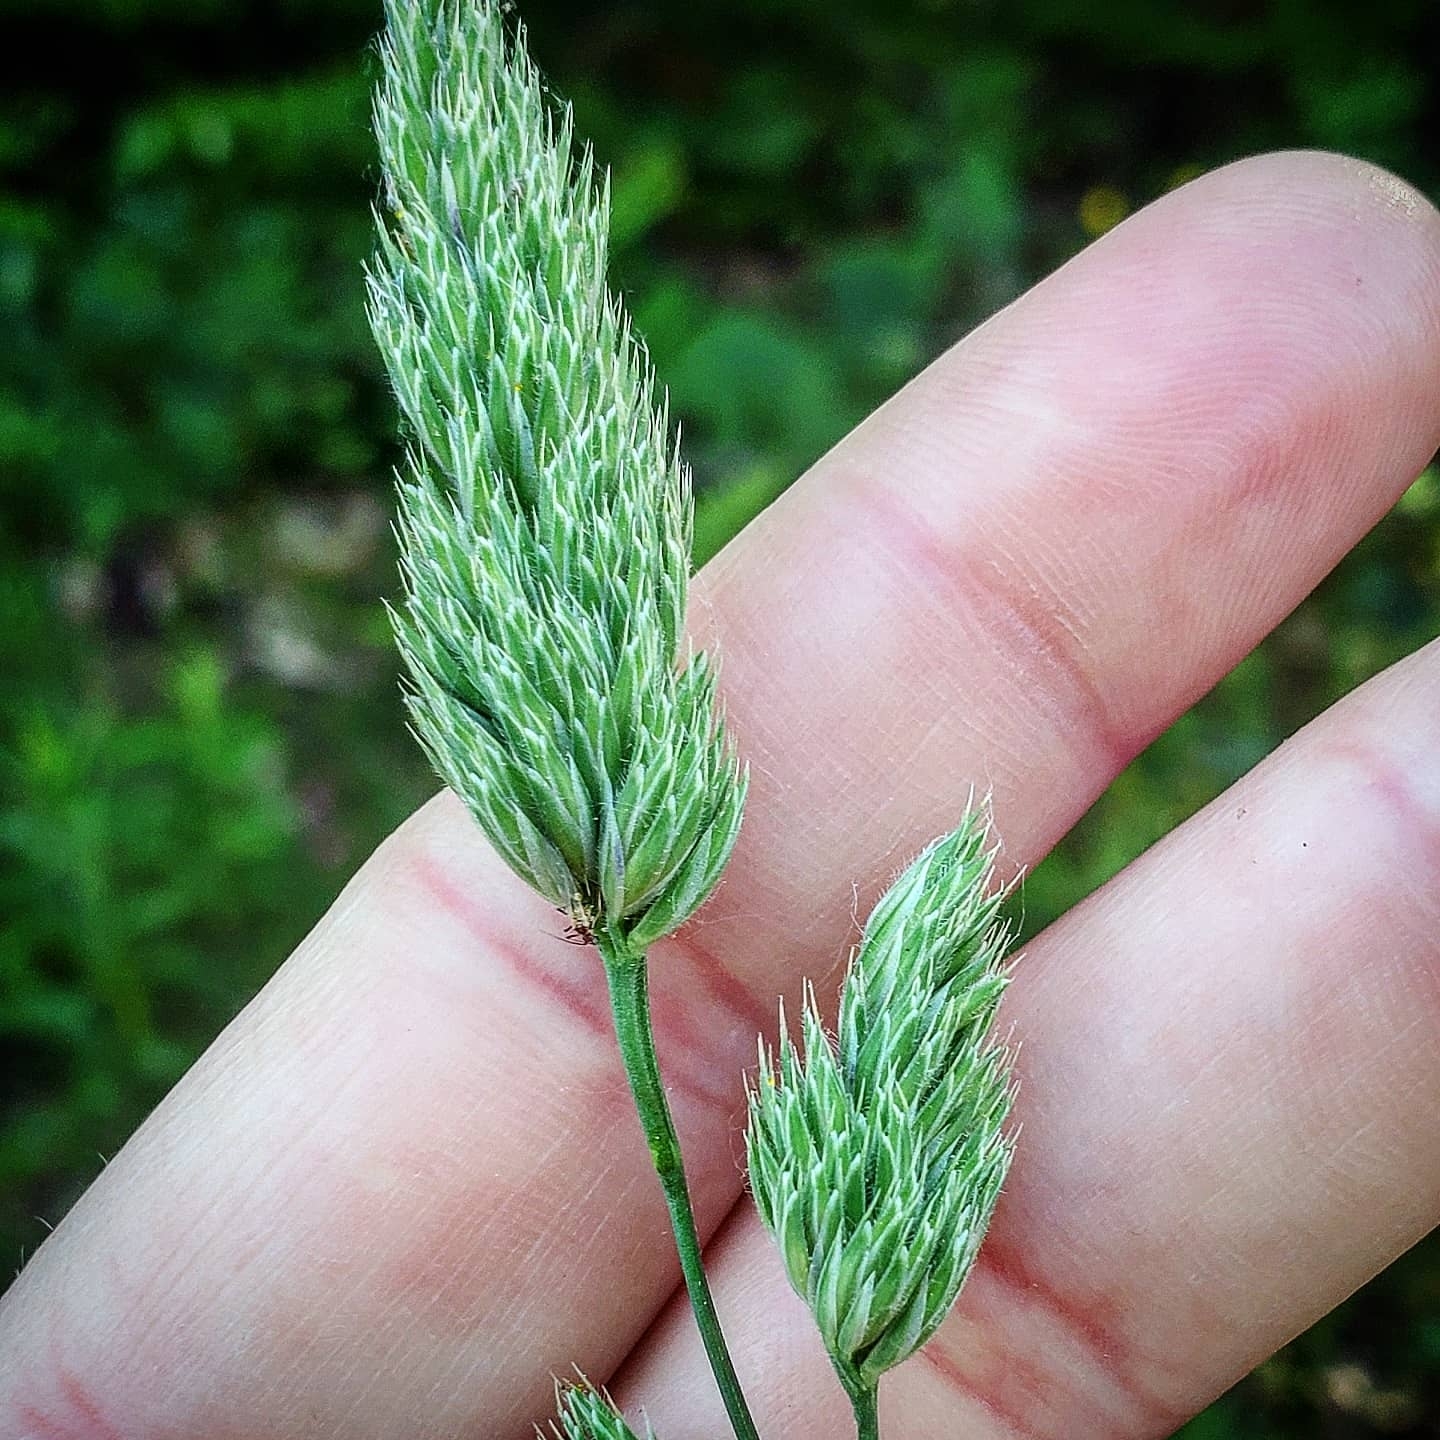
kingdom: Plantae
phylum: Tracheophyta
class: Liliopsida
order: Poales
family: Poaceae
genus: Dactylis
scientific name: Dactylis glomerata
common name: Orchardgrass
